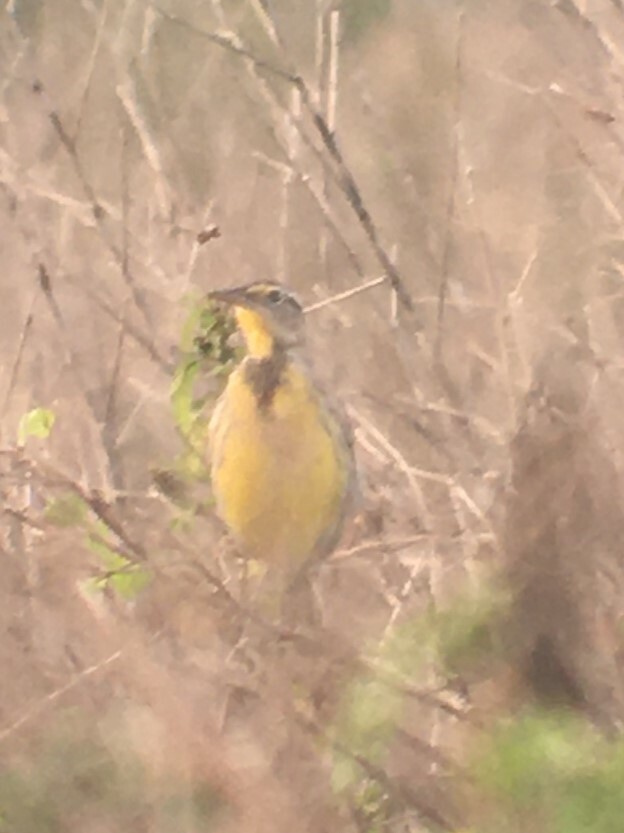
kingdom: Animalia
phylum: Chordata
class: Aves
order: Passeriformes
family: Icteridae
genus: Sturnella
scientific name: Sturnella magna
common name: Eastern meadowlark
